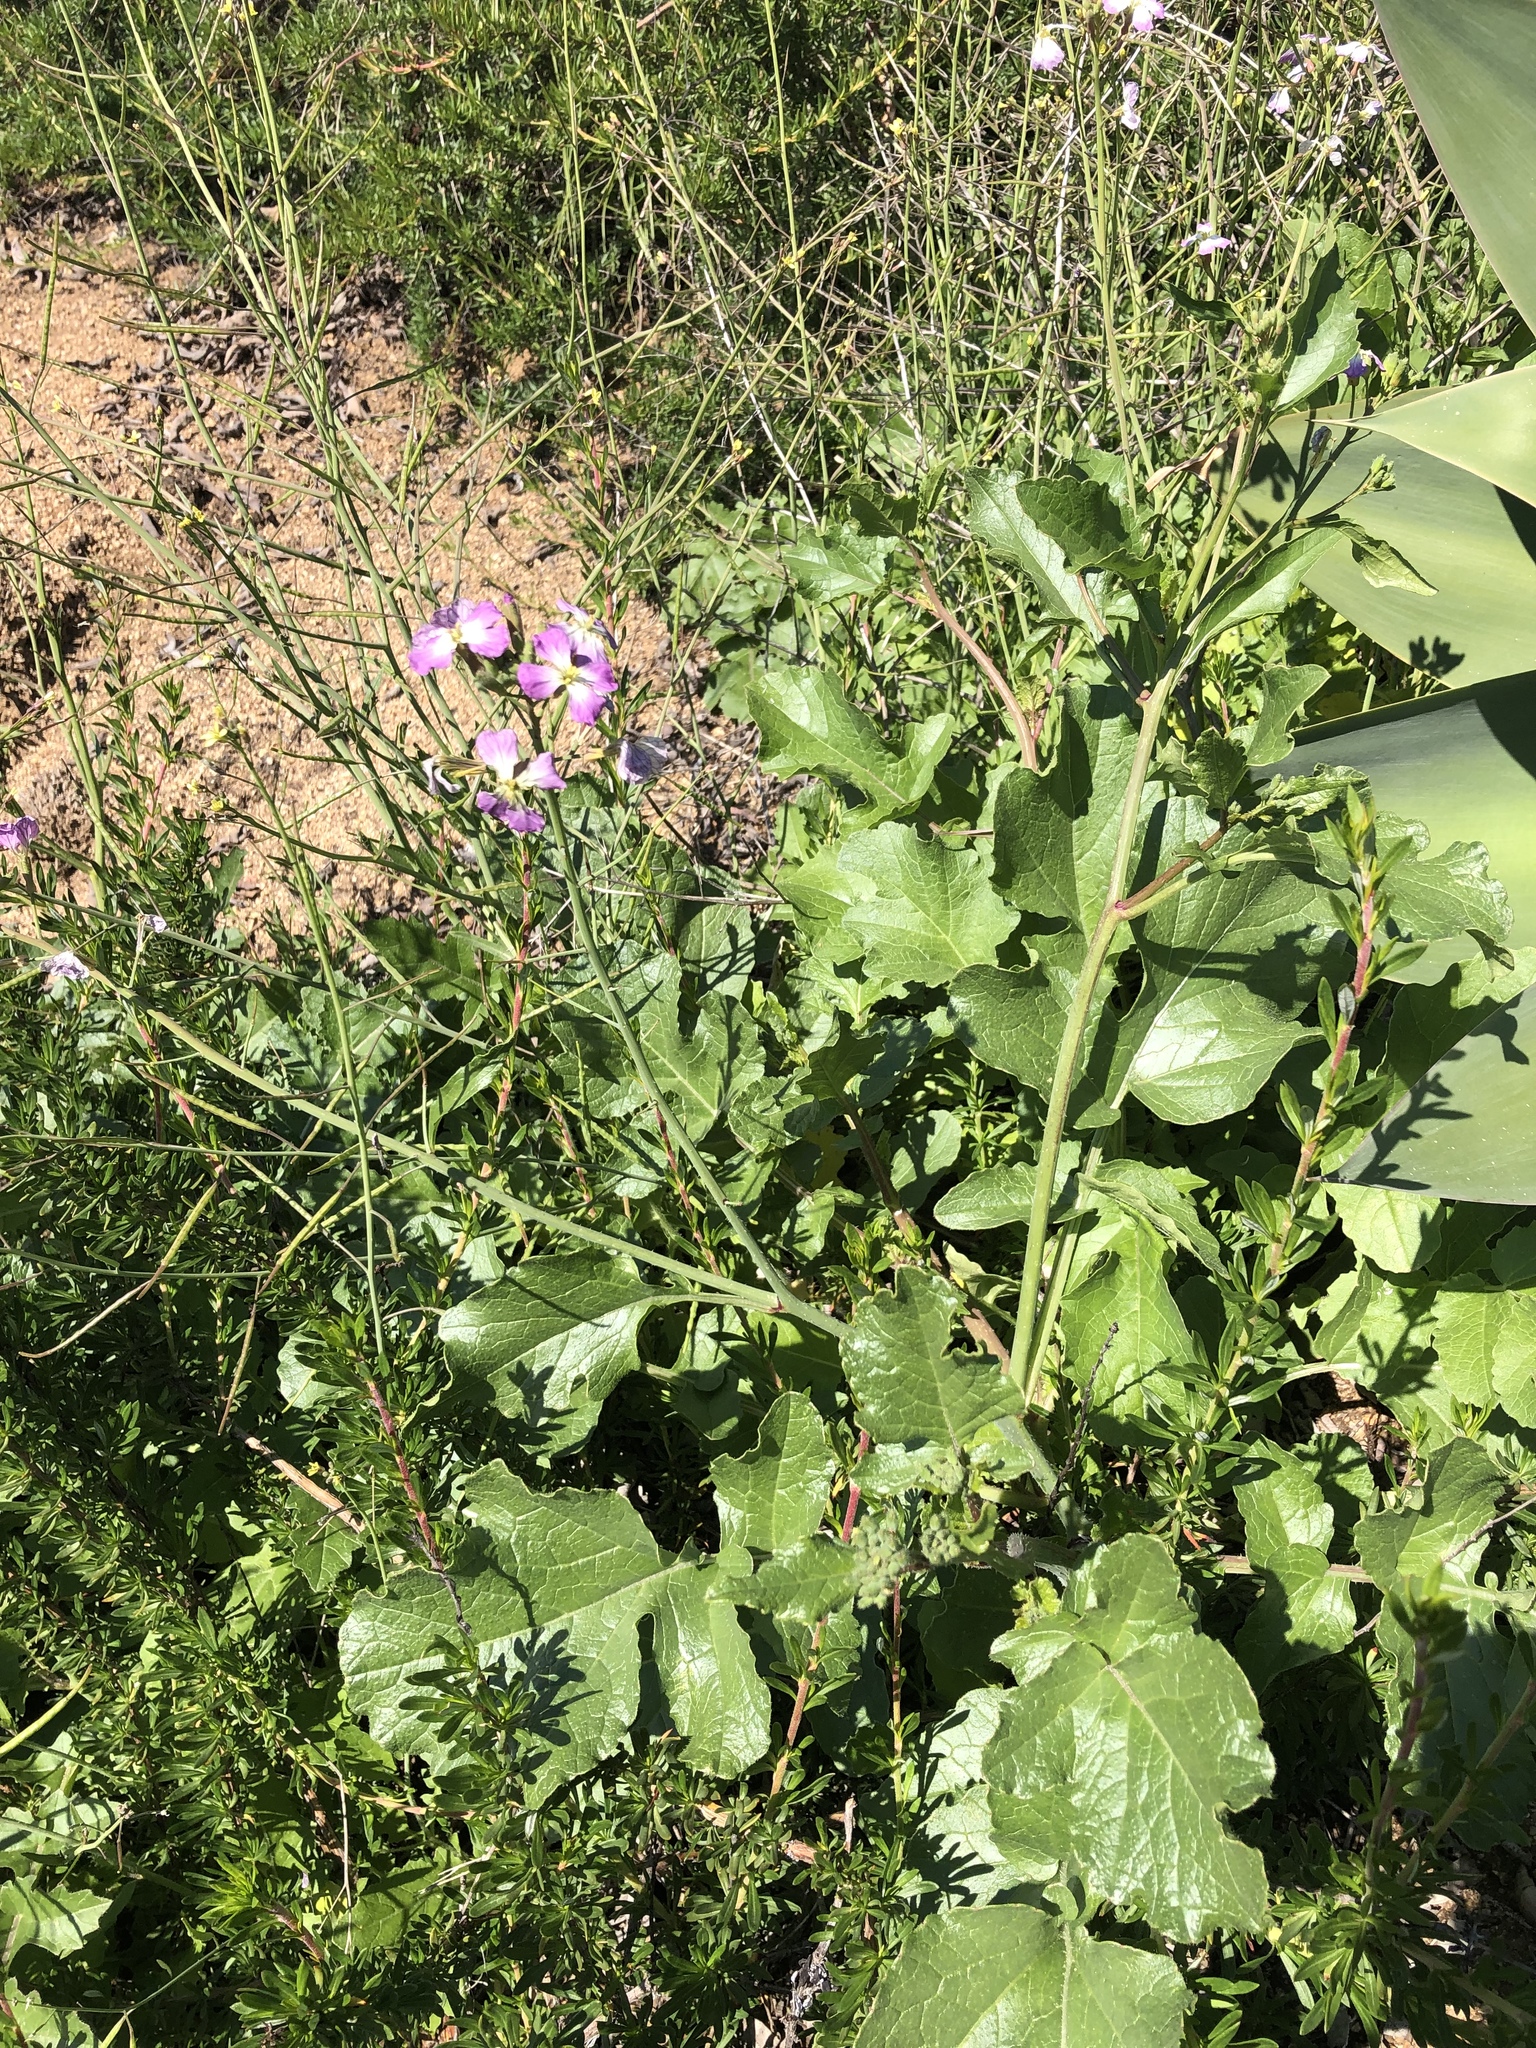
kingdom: Plantae
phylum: Tracheophyta
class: Magnoliopsida
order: Brassicales
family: Brassicaceae
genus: Raphanus
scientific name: Raphanus sativus
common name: Cultivated radish
